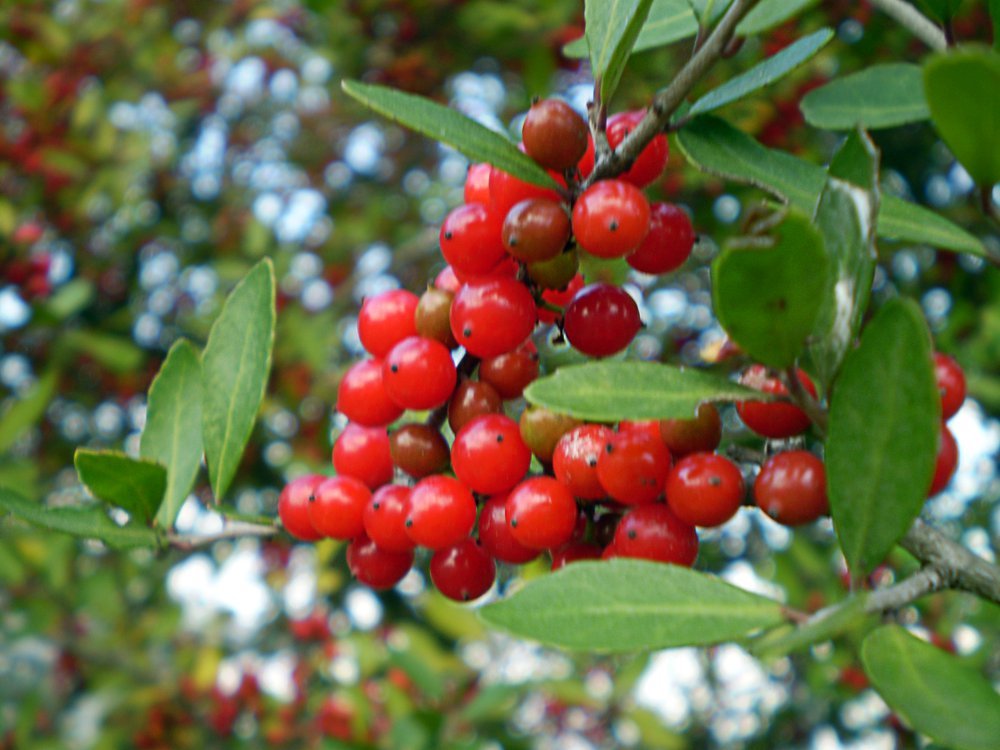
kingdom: Plantae
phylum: Tracheophyta
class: Magnoliopsida
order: Aquifoliales
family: Aquifoliaceae
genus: Ilex
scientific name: Ilex vomitoria
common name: Yaupon holly
